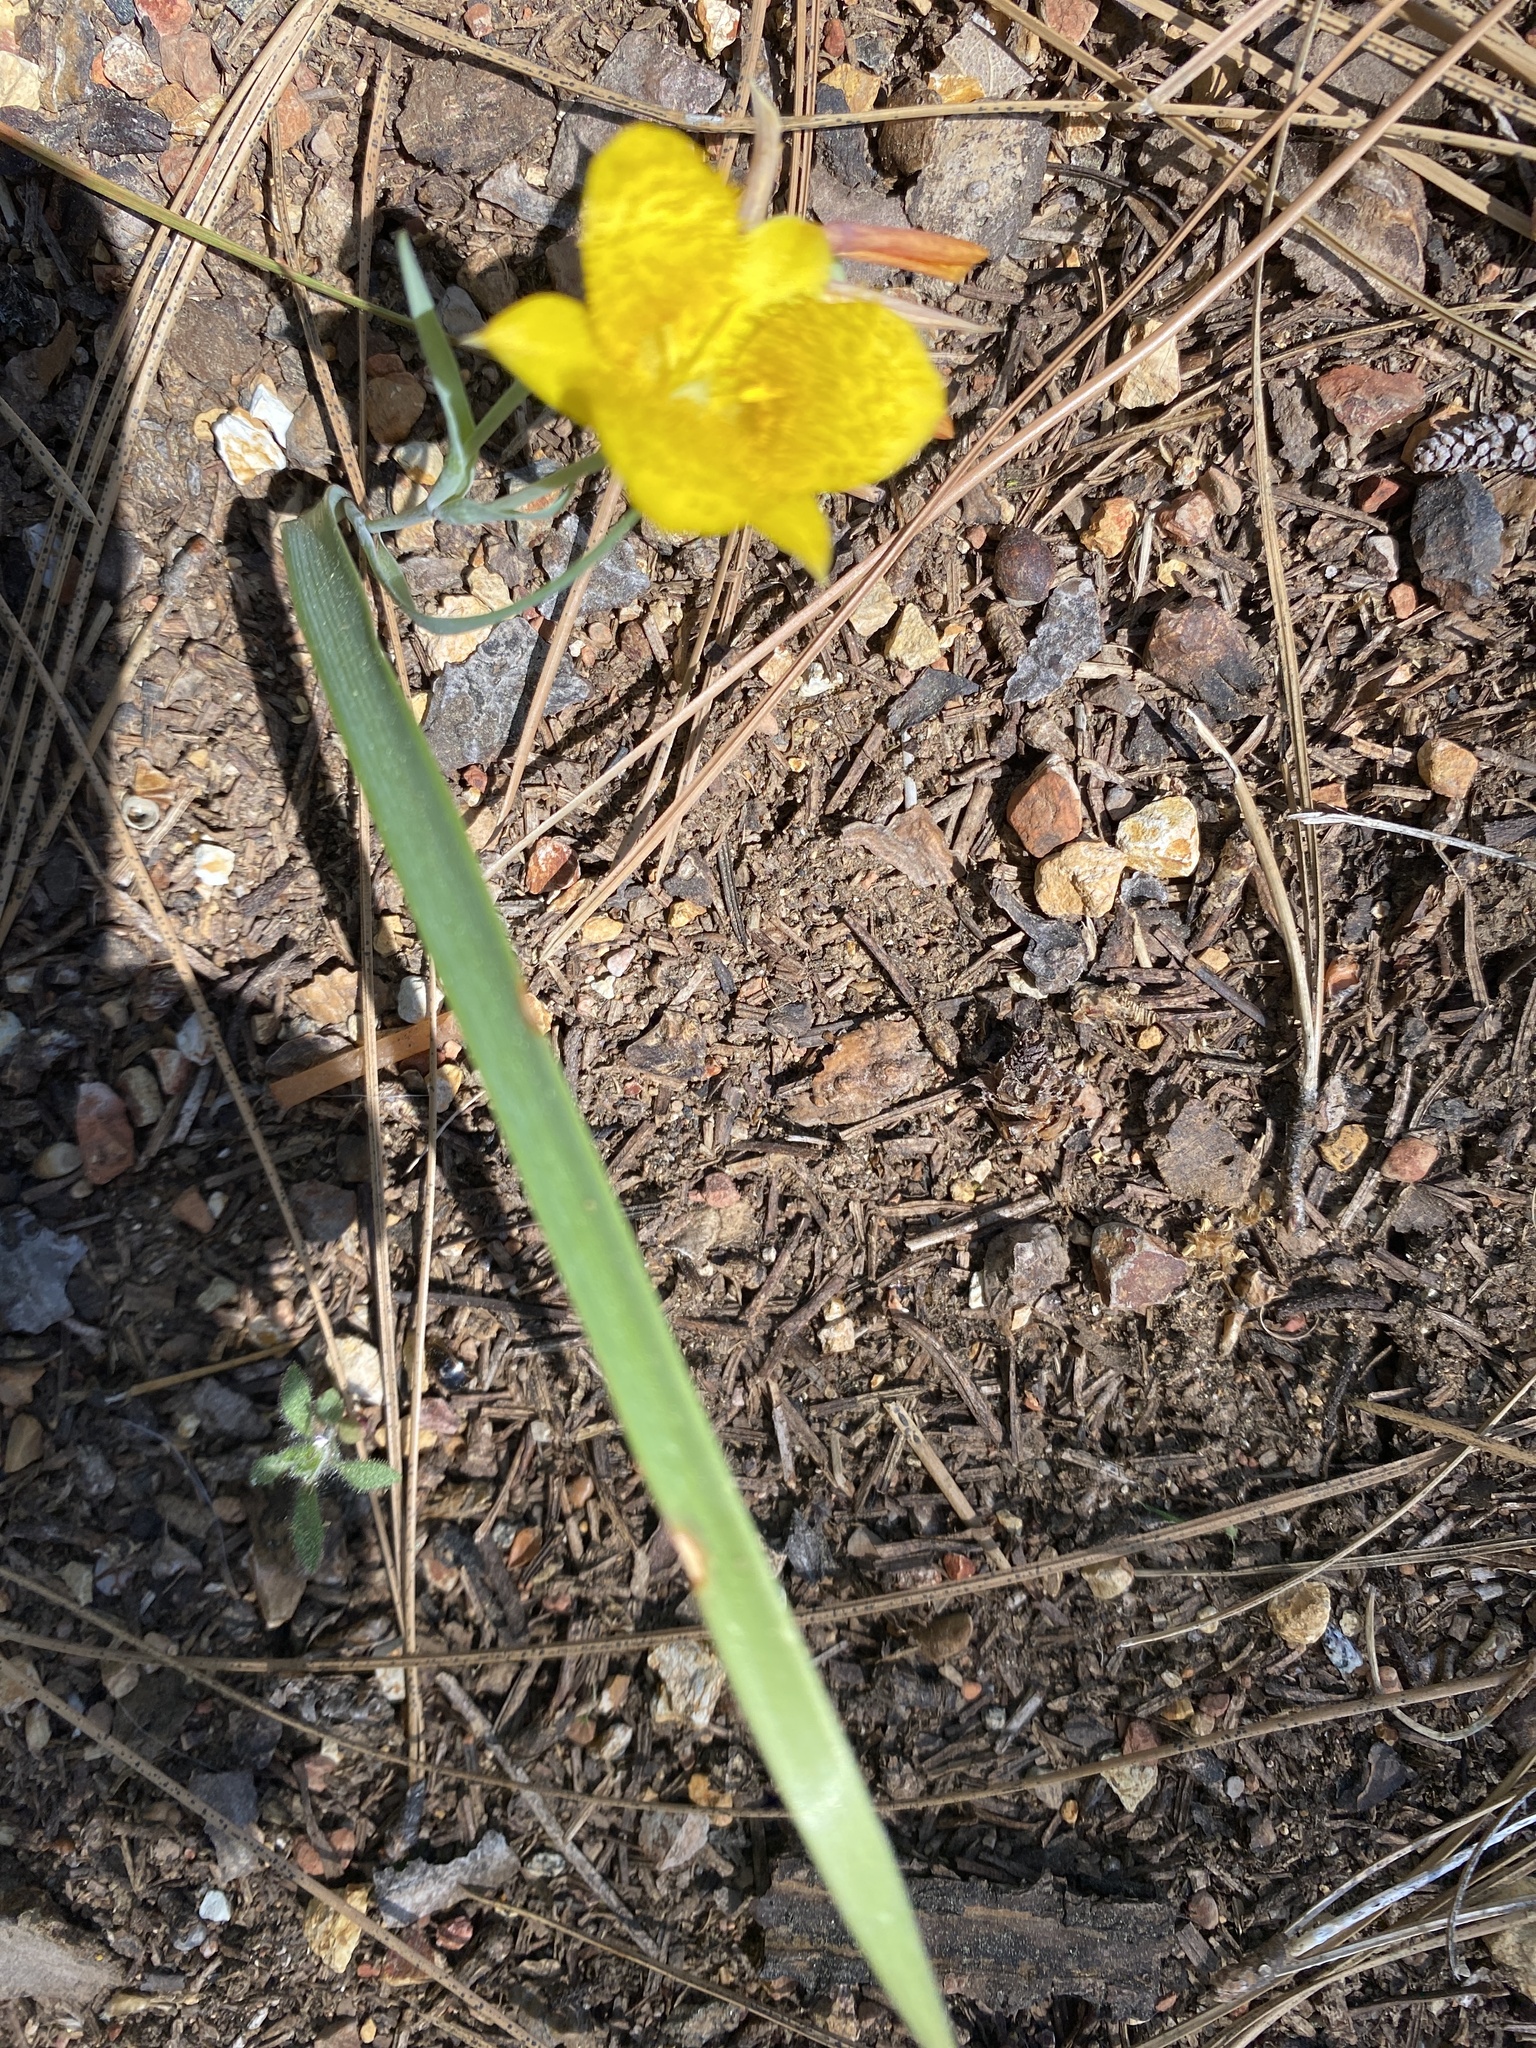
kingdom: Plantae
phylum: Tracheophyta
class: Liliopsida
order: Liliales
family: Liliaceae
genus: Calochortus
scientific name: Calochortus monophyllus
